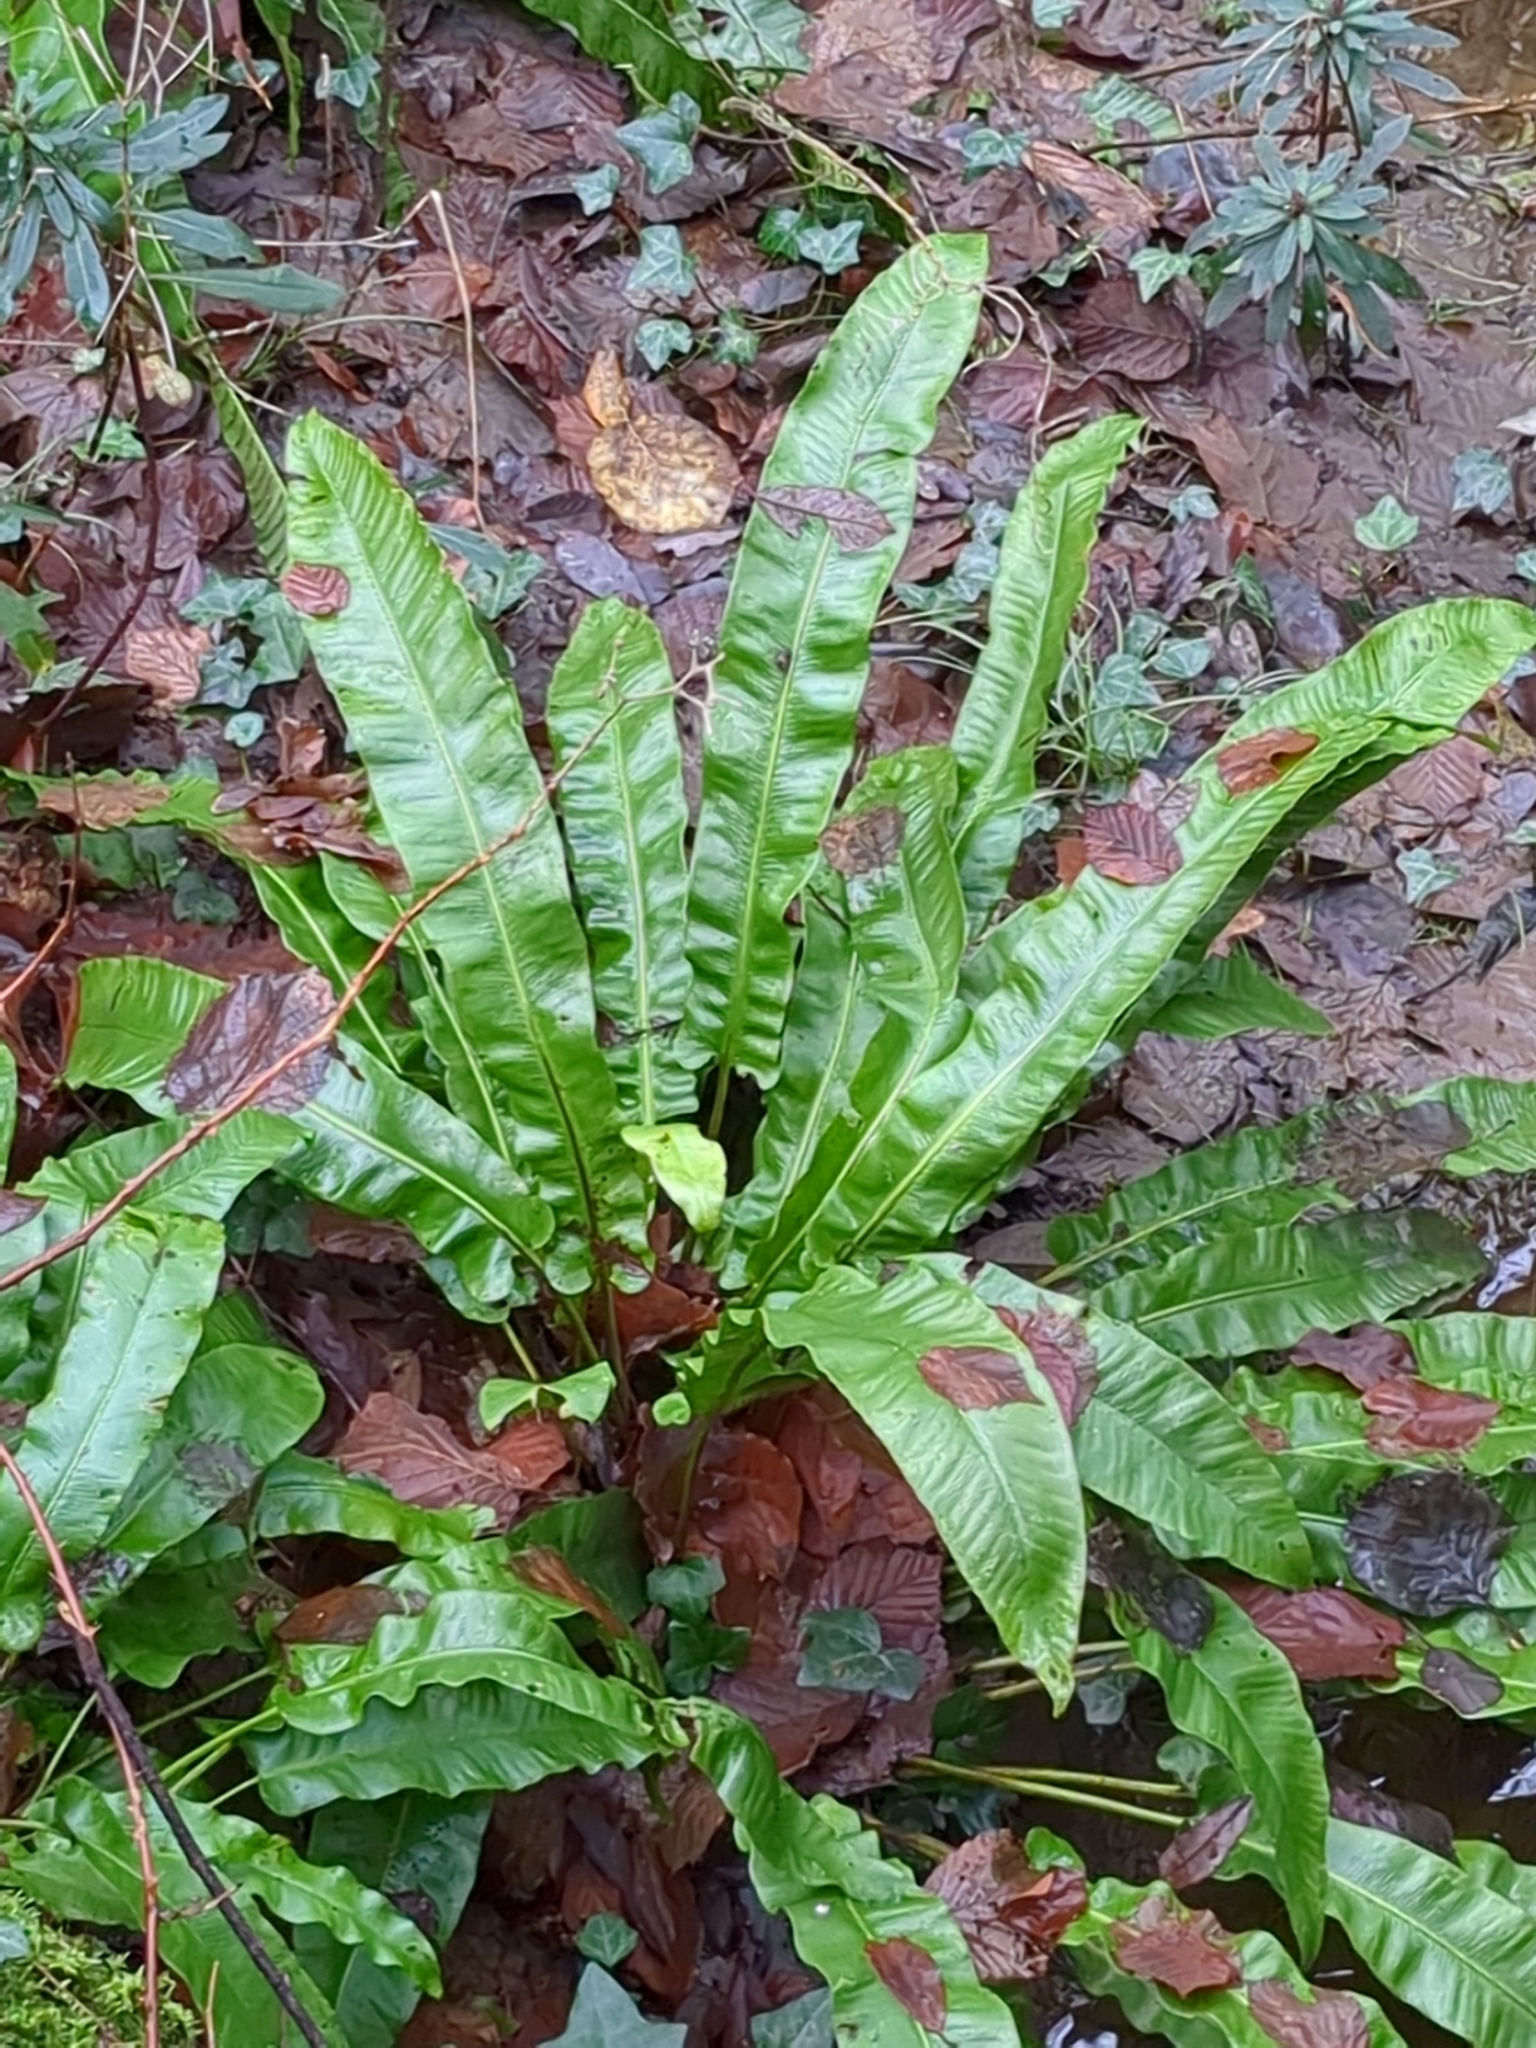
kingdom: Plantae
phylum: Tracheophyta
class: Polypodiopsida
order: Polypodiales
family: Aspleniaceae
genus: Asplenium
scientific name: Asplenium scolopendrium
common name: Hart's-tongue fern
